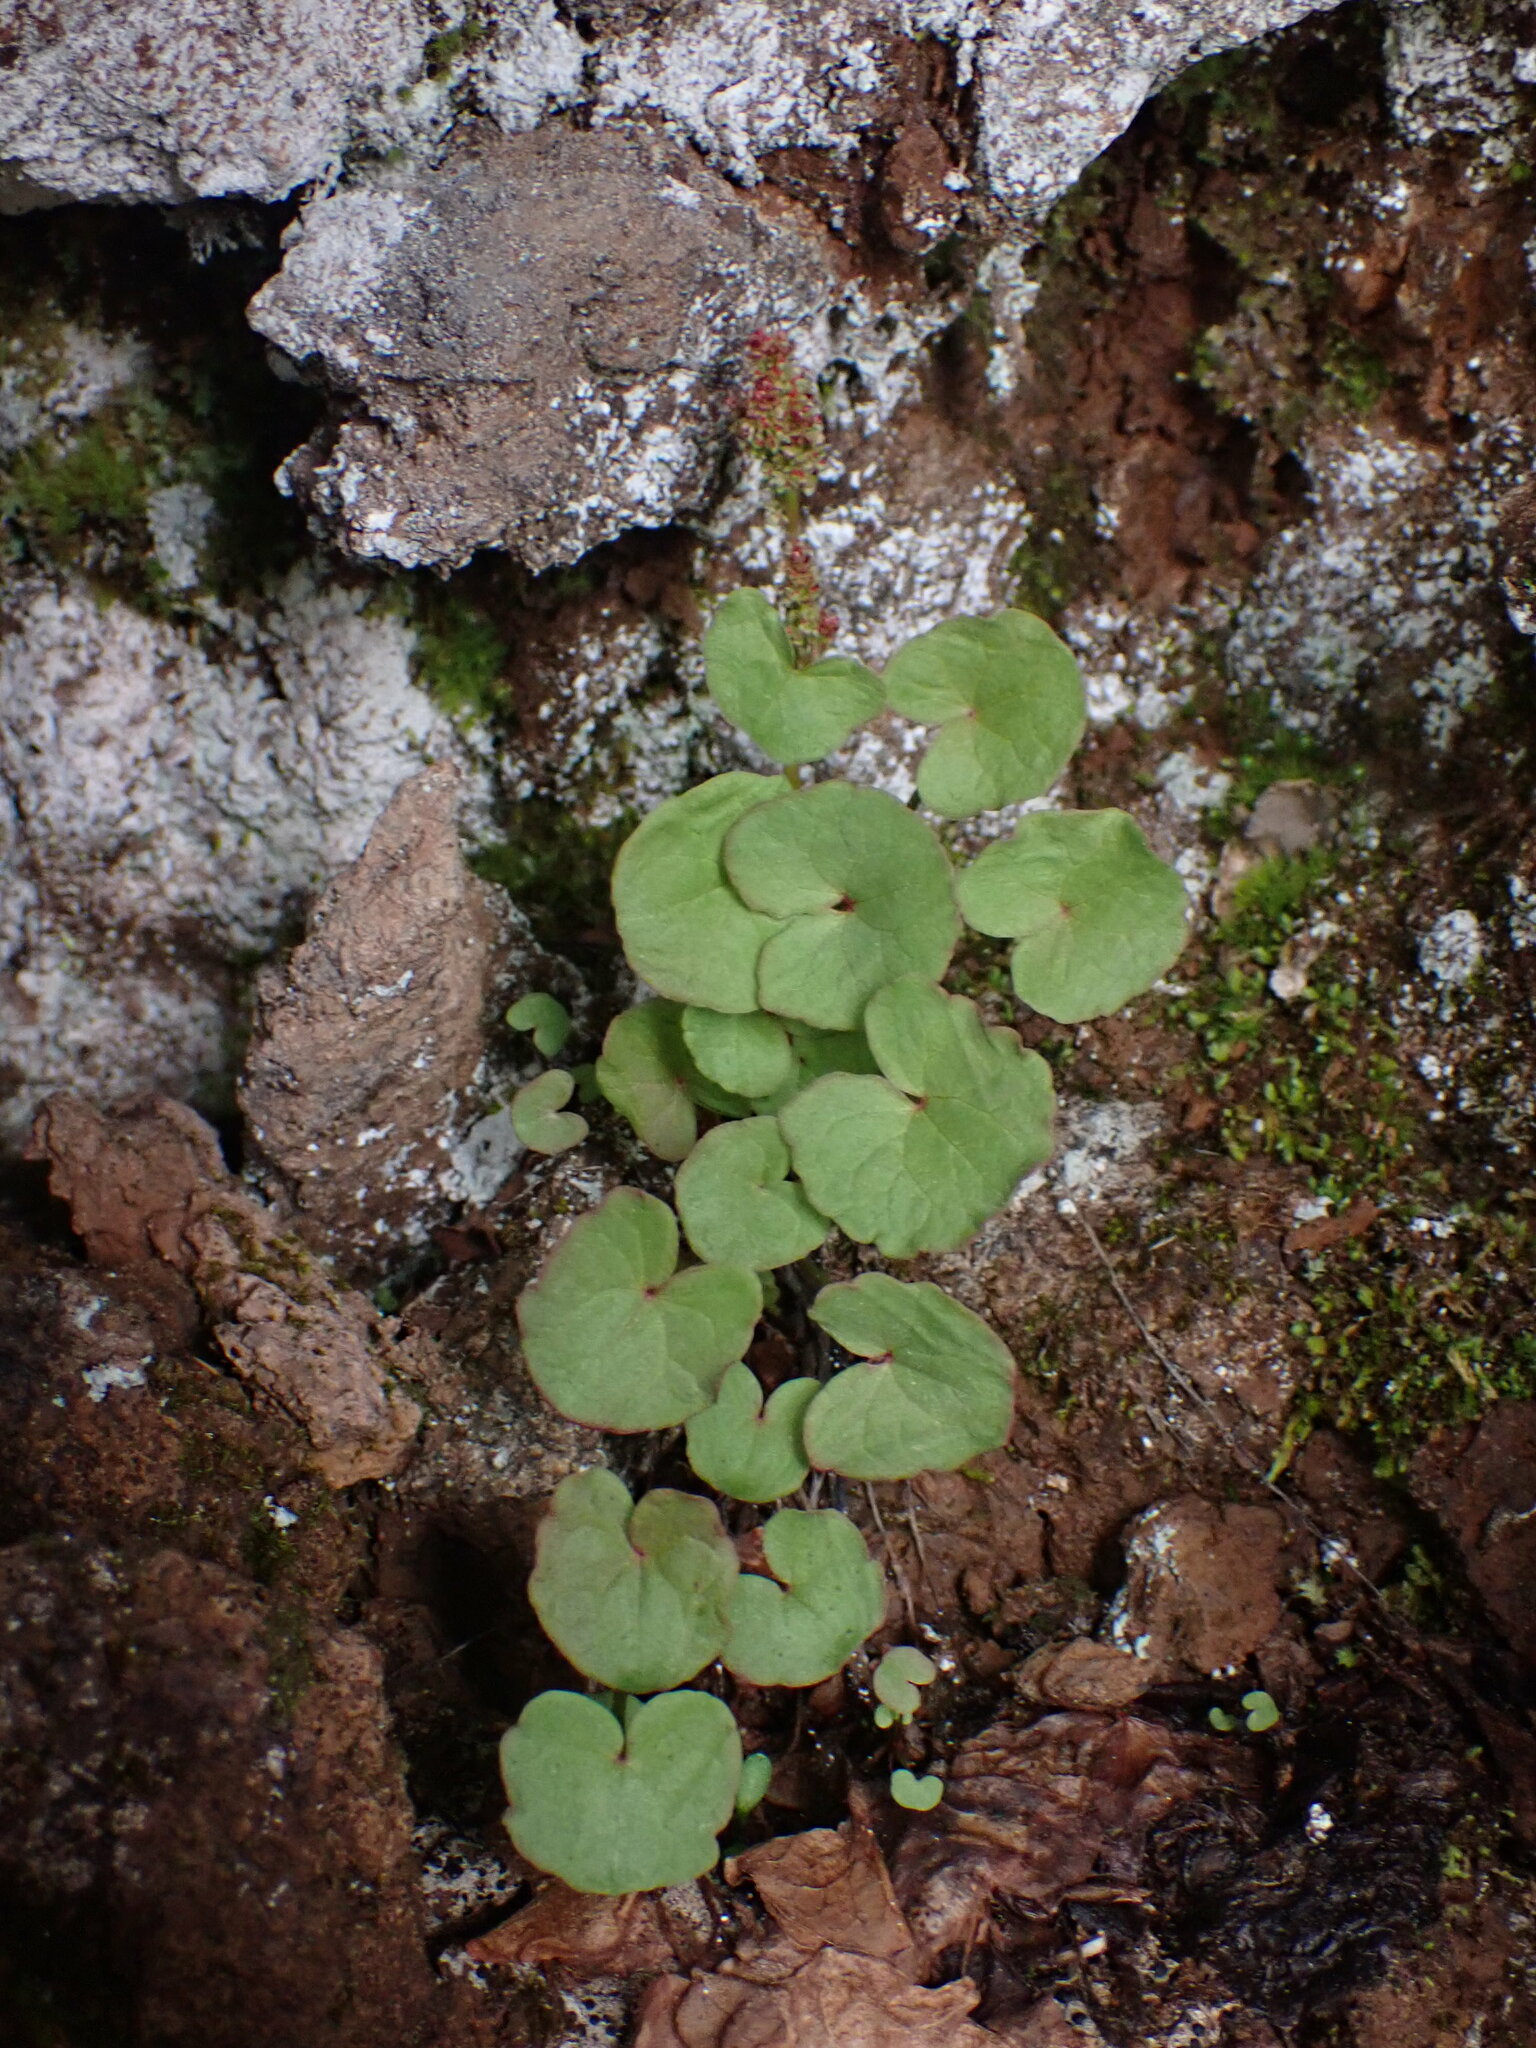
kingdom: Plantae
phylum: Tracheophyta
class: Magnoliopsida
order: Caryophyllales
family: Polygonaceae
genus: Oxyria
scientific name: Oxyria digyna
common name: Alpine mountain-sorrel
